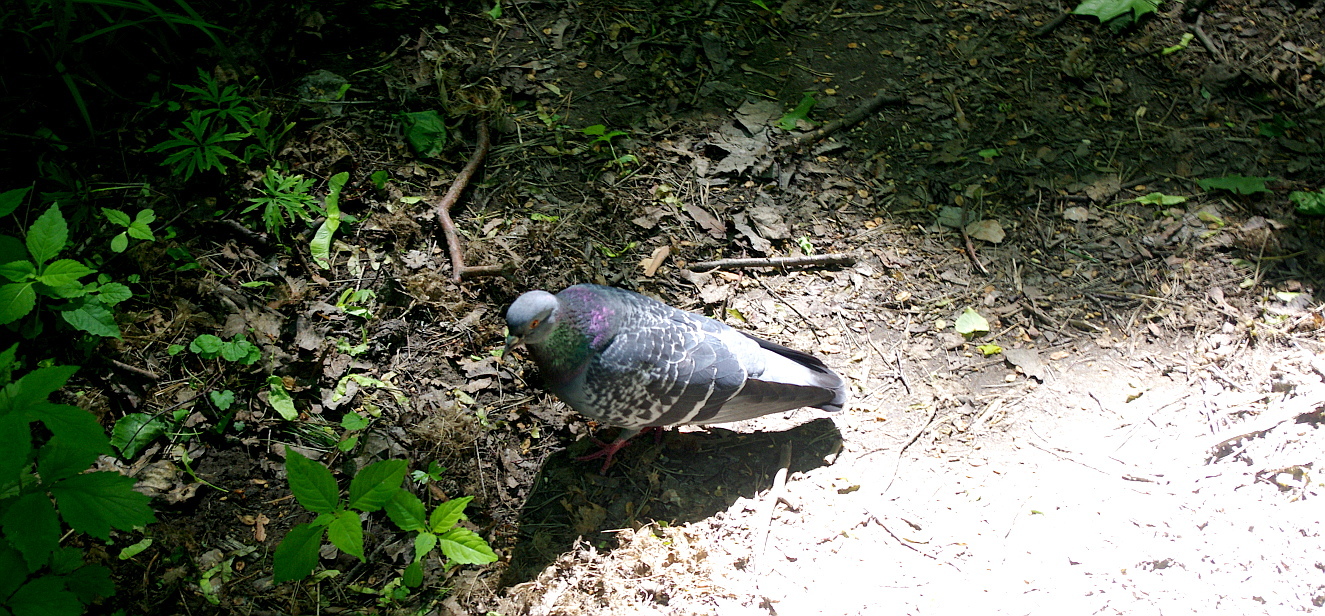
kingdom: Animalia
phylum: Chordata
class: Aves
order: Columbiformes
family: Columbidae
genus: Columba
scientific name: Columba livia
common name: Rock pigeon
